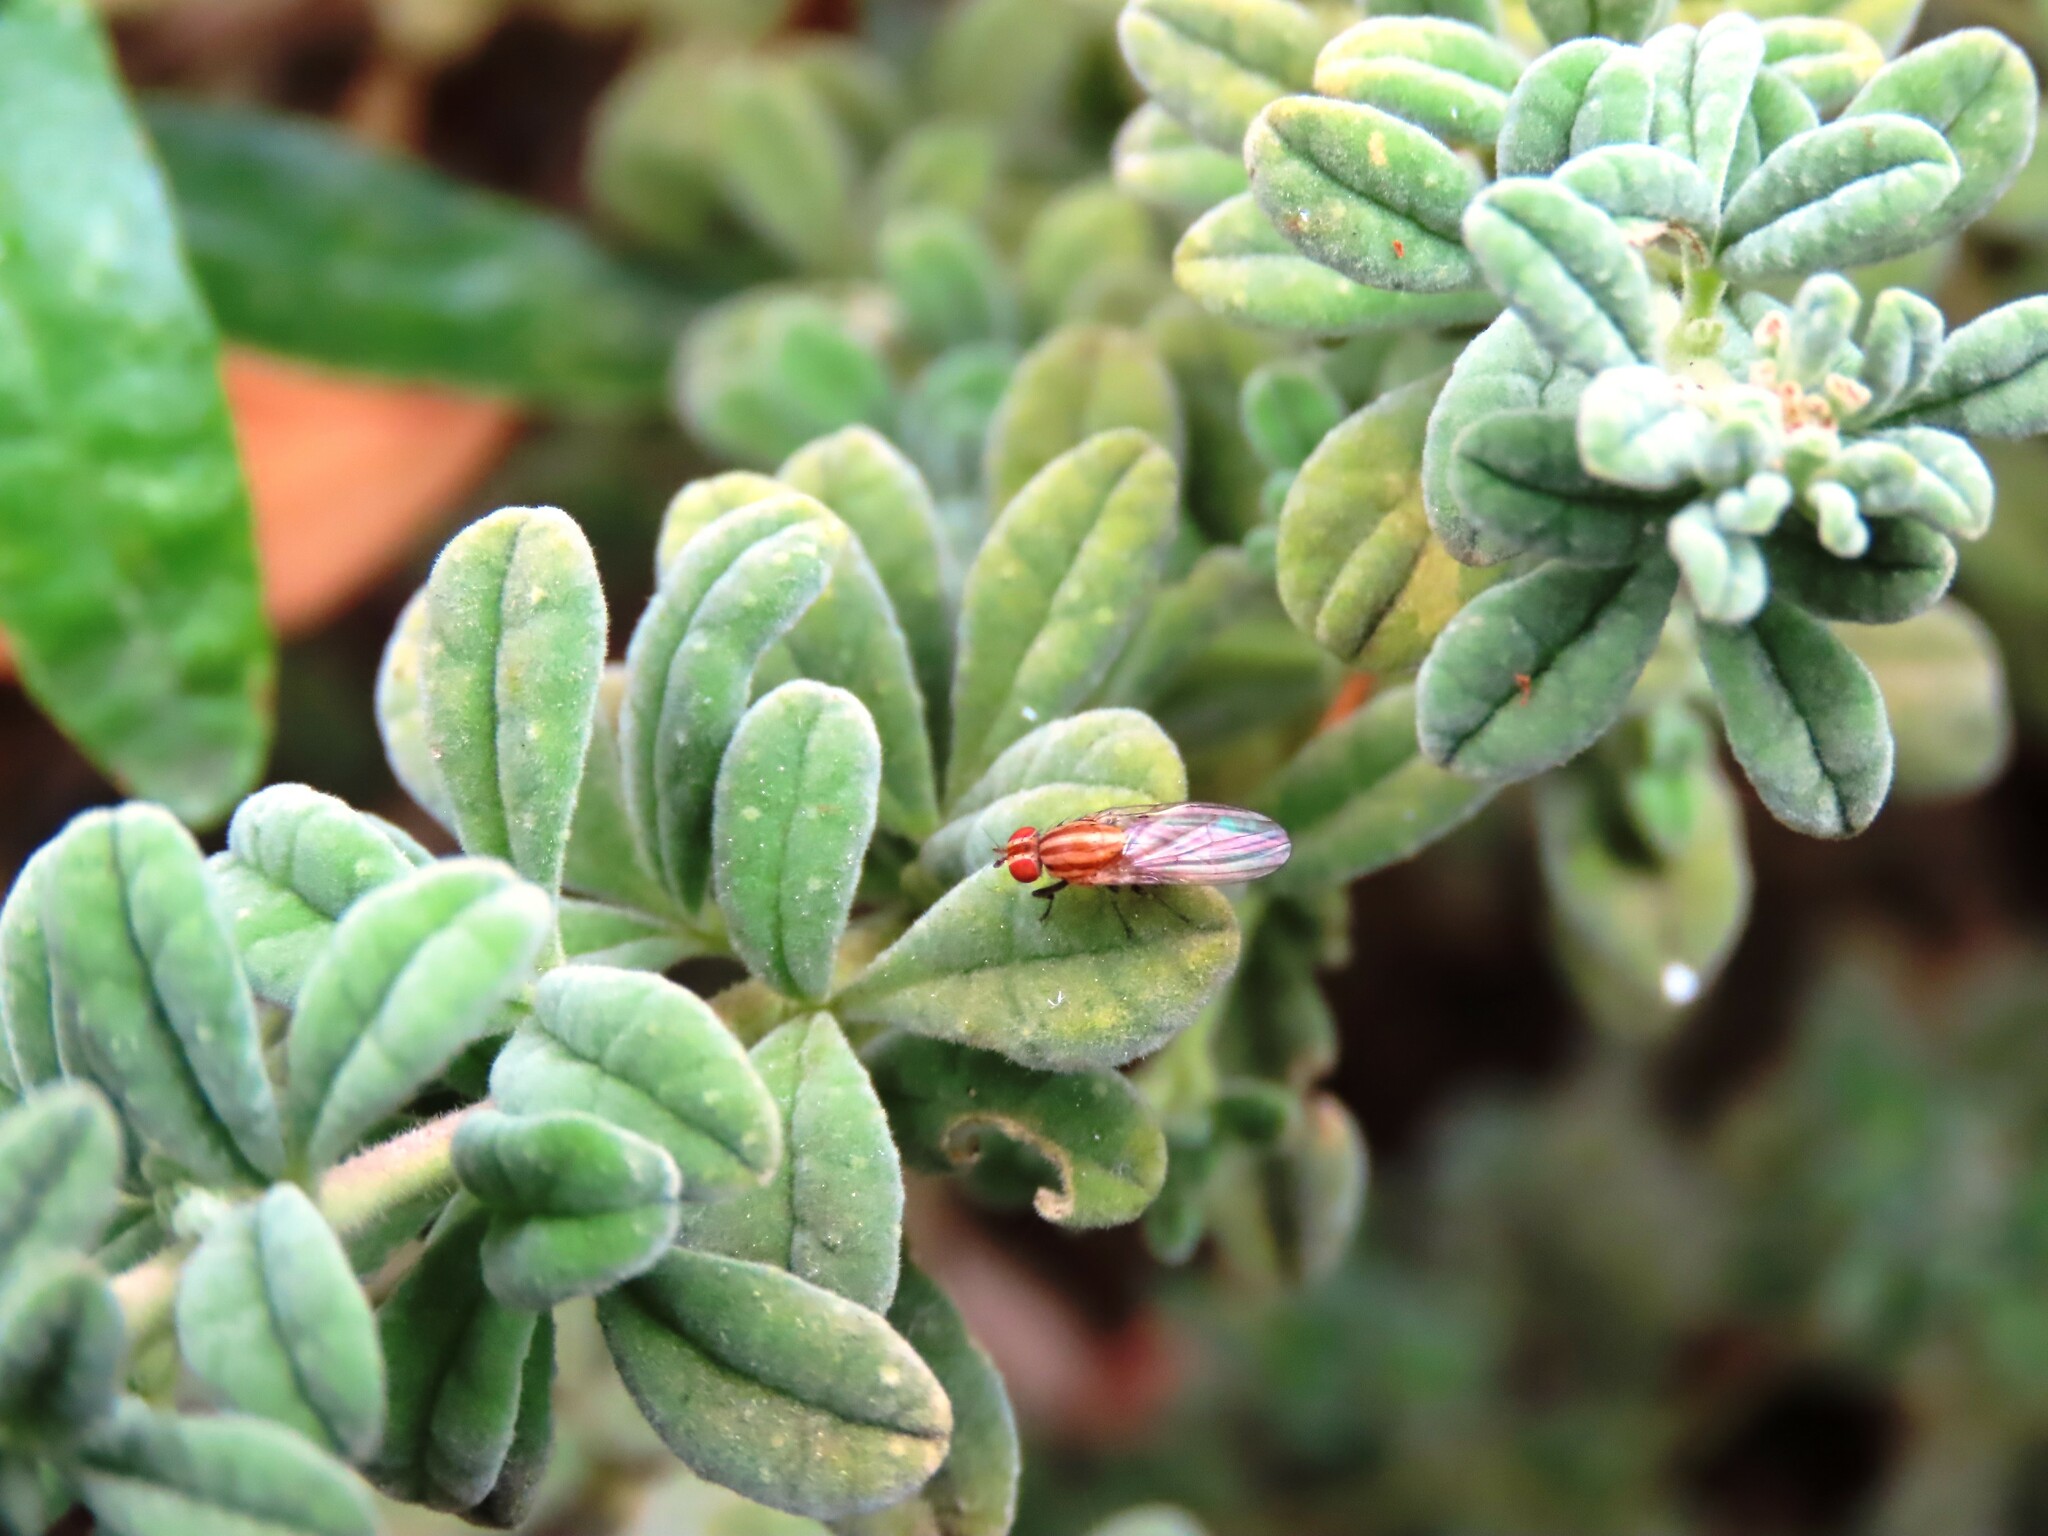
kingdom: Animalia
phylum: Arthropoda
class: Insecta
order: Diptera
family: Lauxaniidae
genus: Sapromyza
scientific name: Sapromyza brunneovittata
